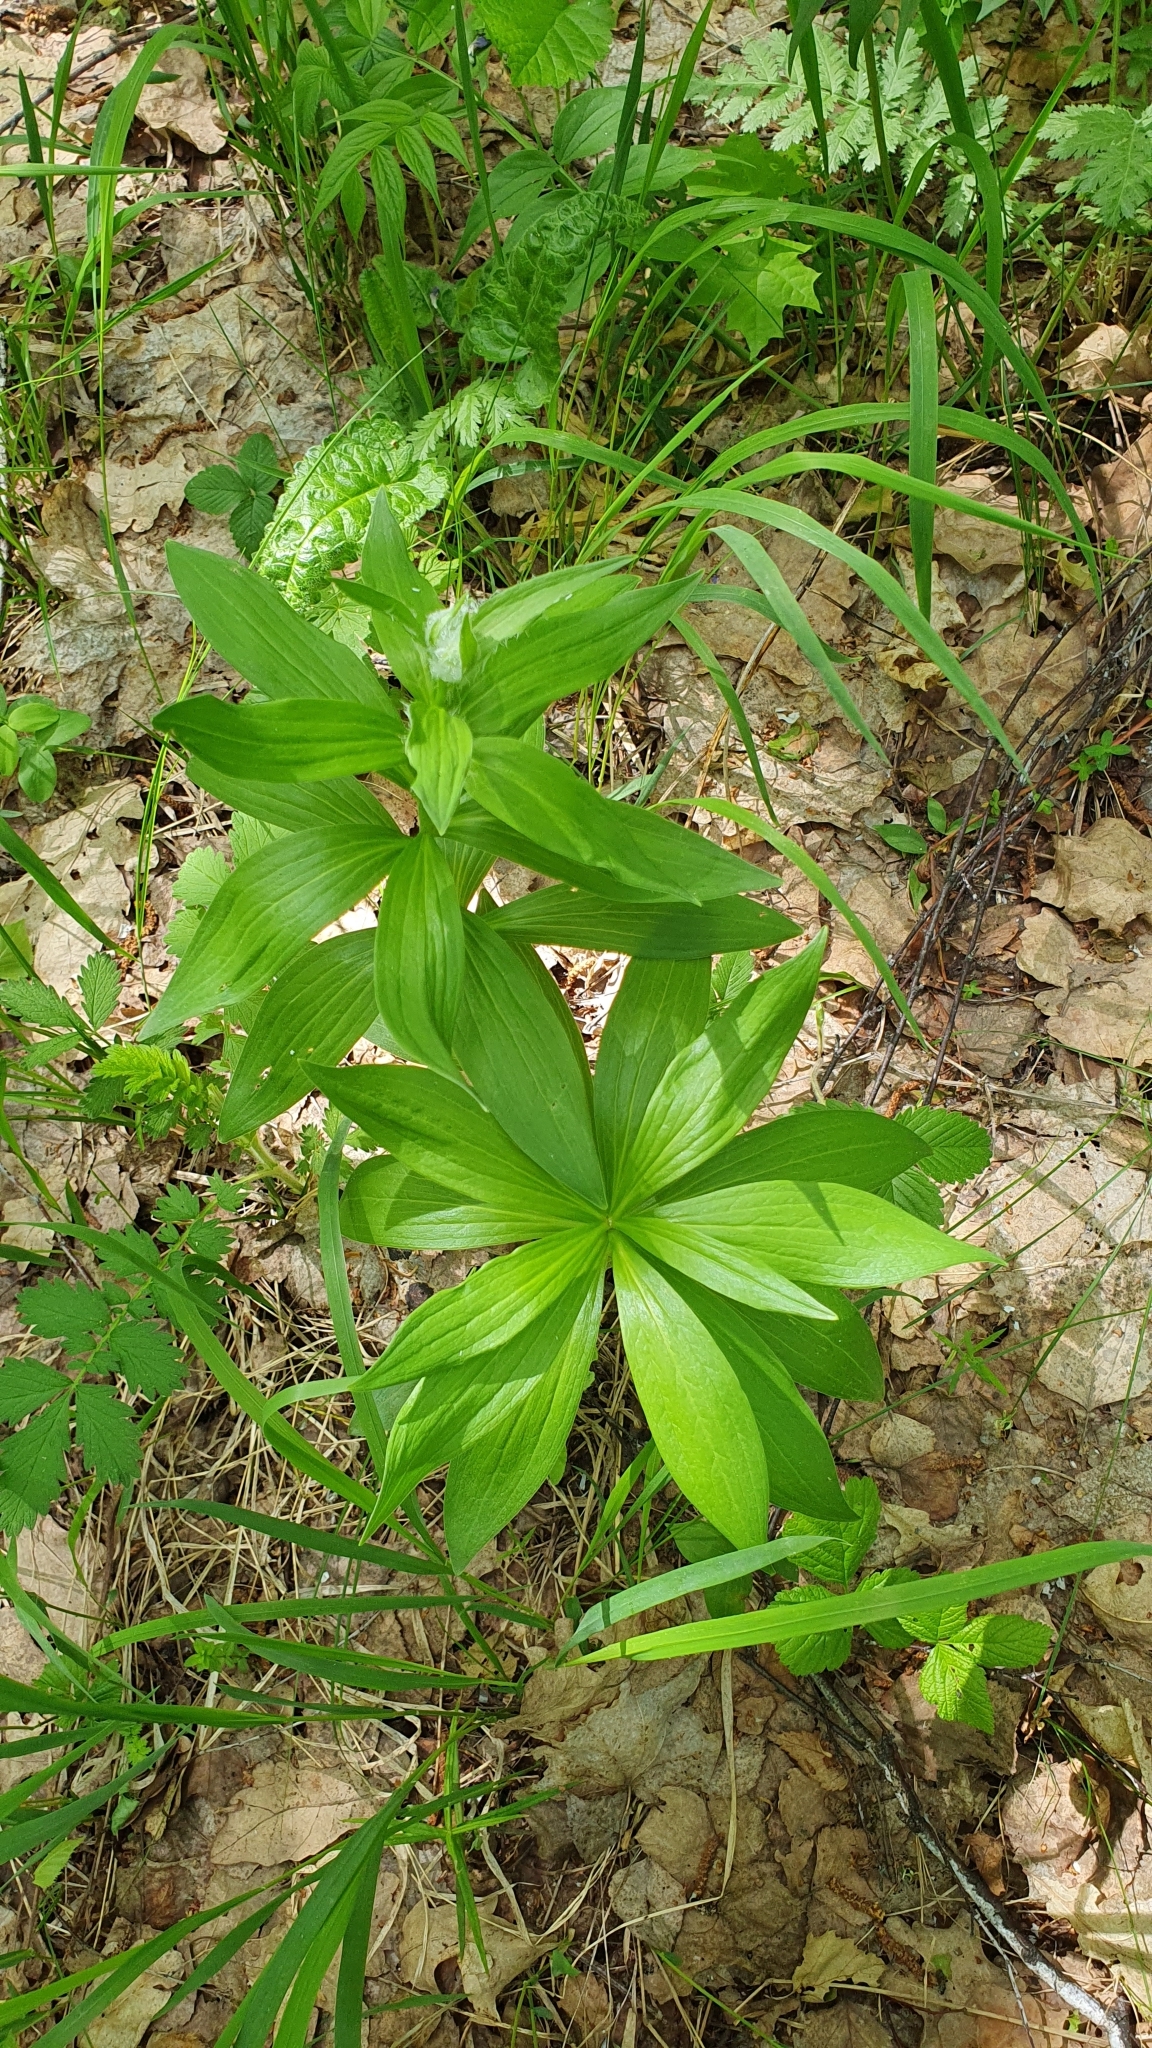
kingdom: Plantae
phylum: Tracheophyta
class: Liliopsida
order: Liliales
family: Liliaceae
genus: Lilium
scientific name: Lilium martagon
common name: Martagon lily
